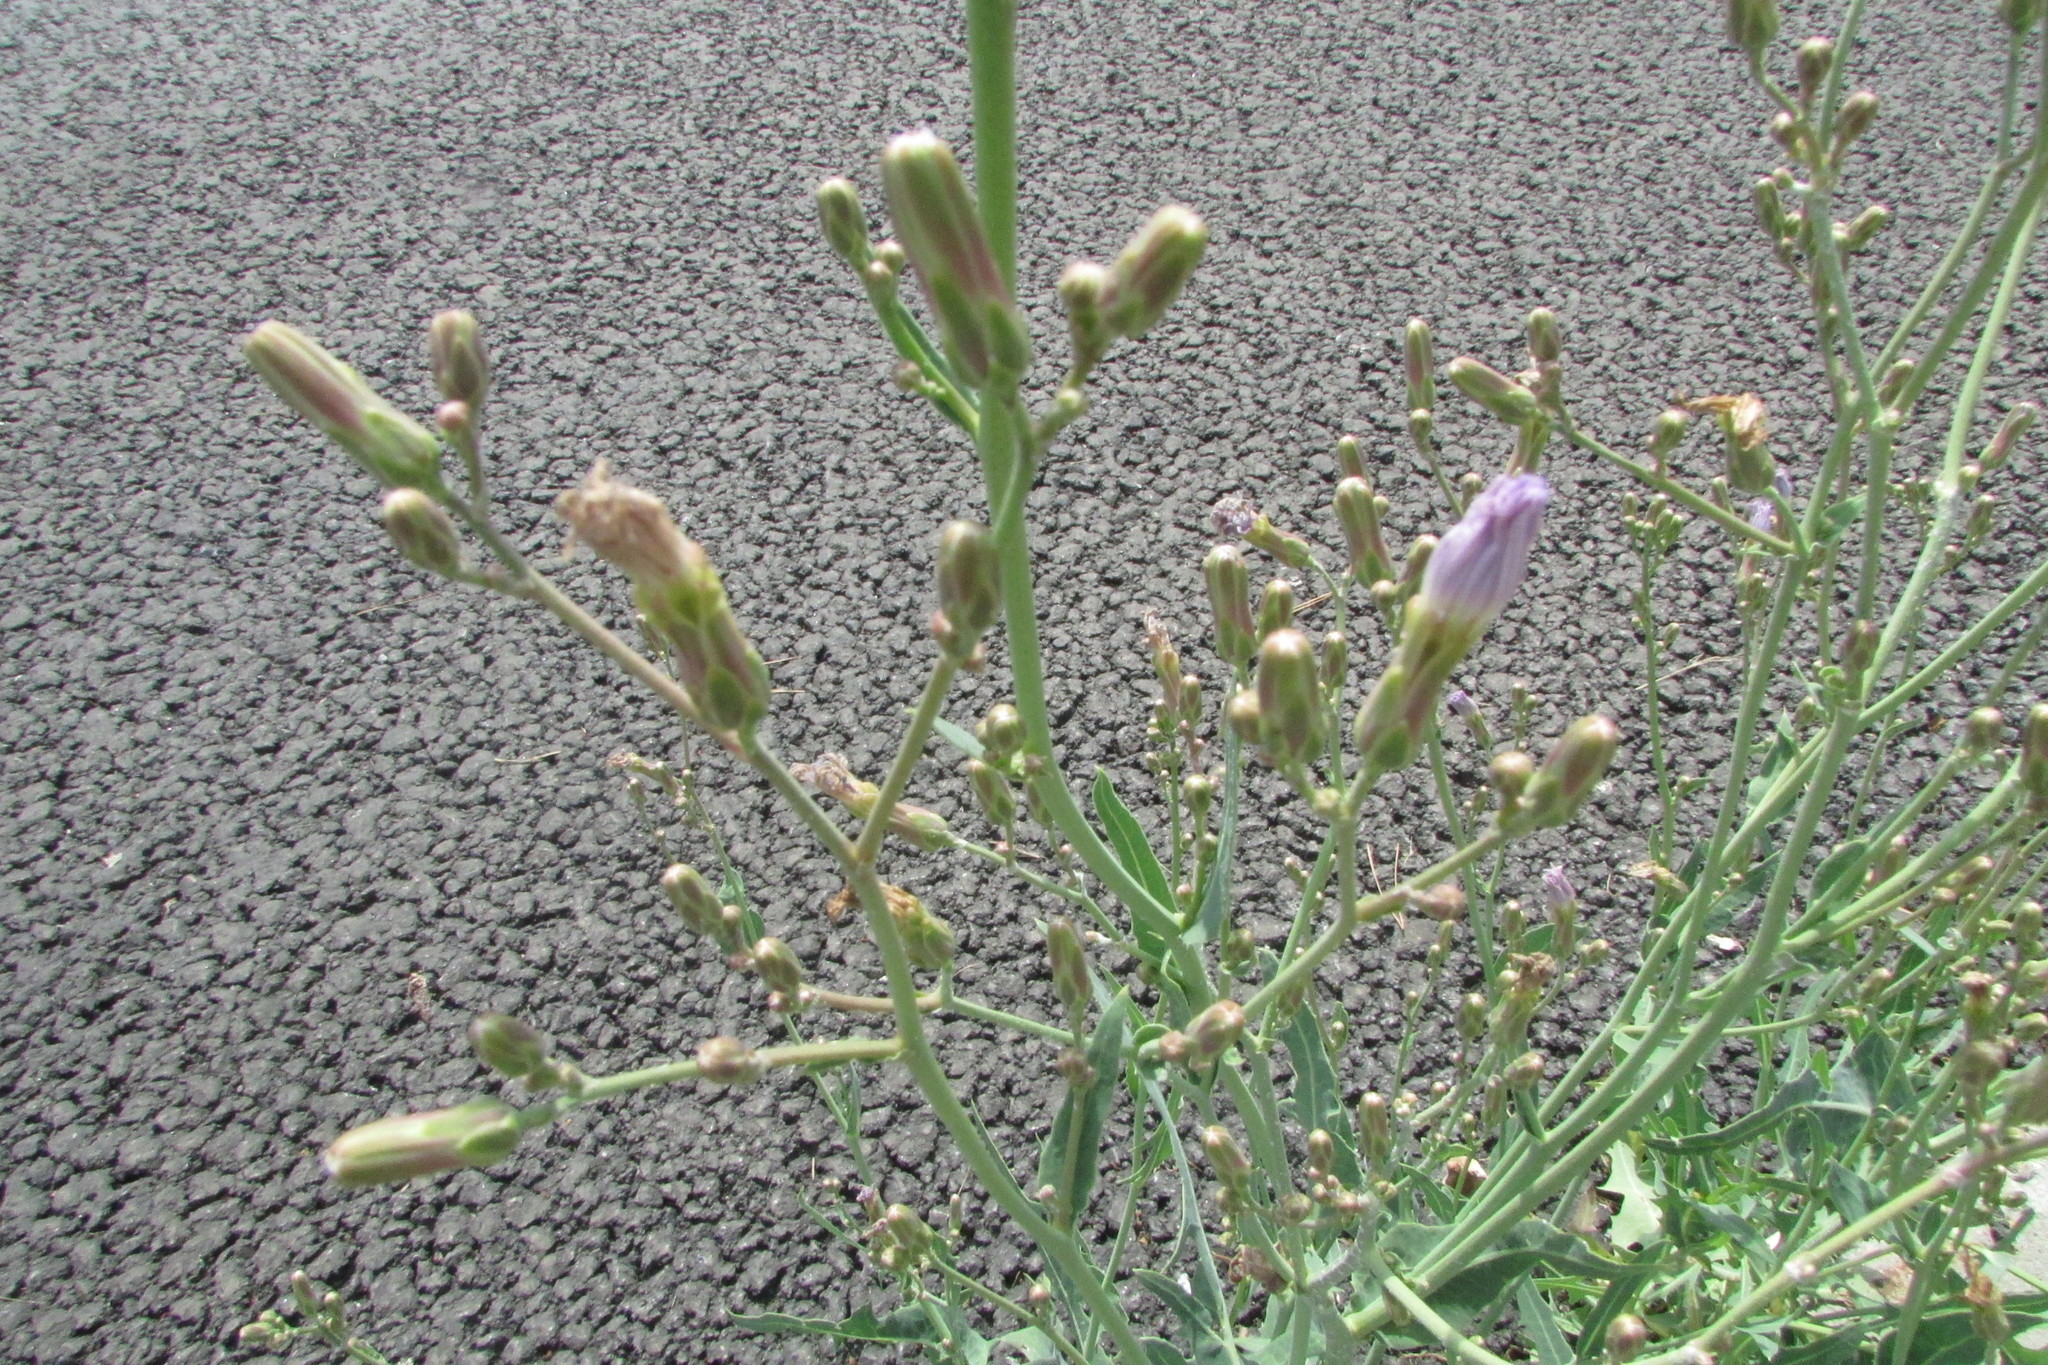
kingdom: Plantae
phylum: Tracheophyta
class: Magnoliopsida
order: Asterales
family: Asteraceae
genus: Lactuca
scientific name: Lactuca tatarica
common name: Blue lettuce
